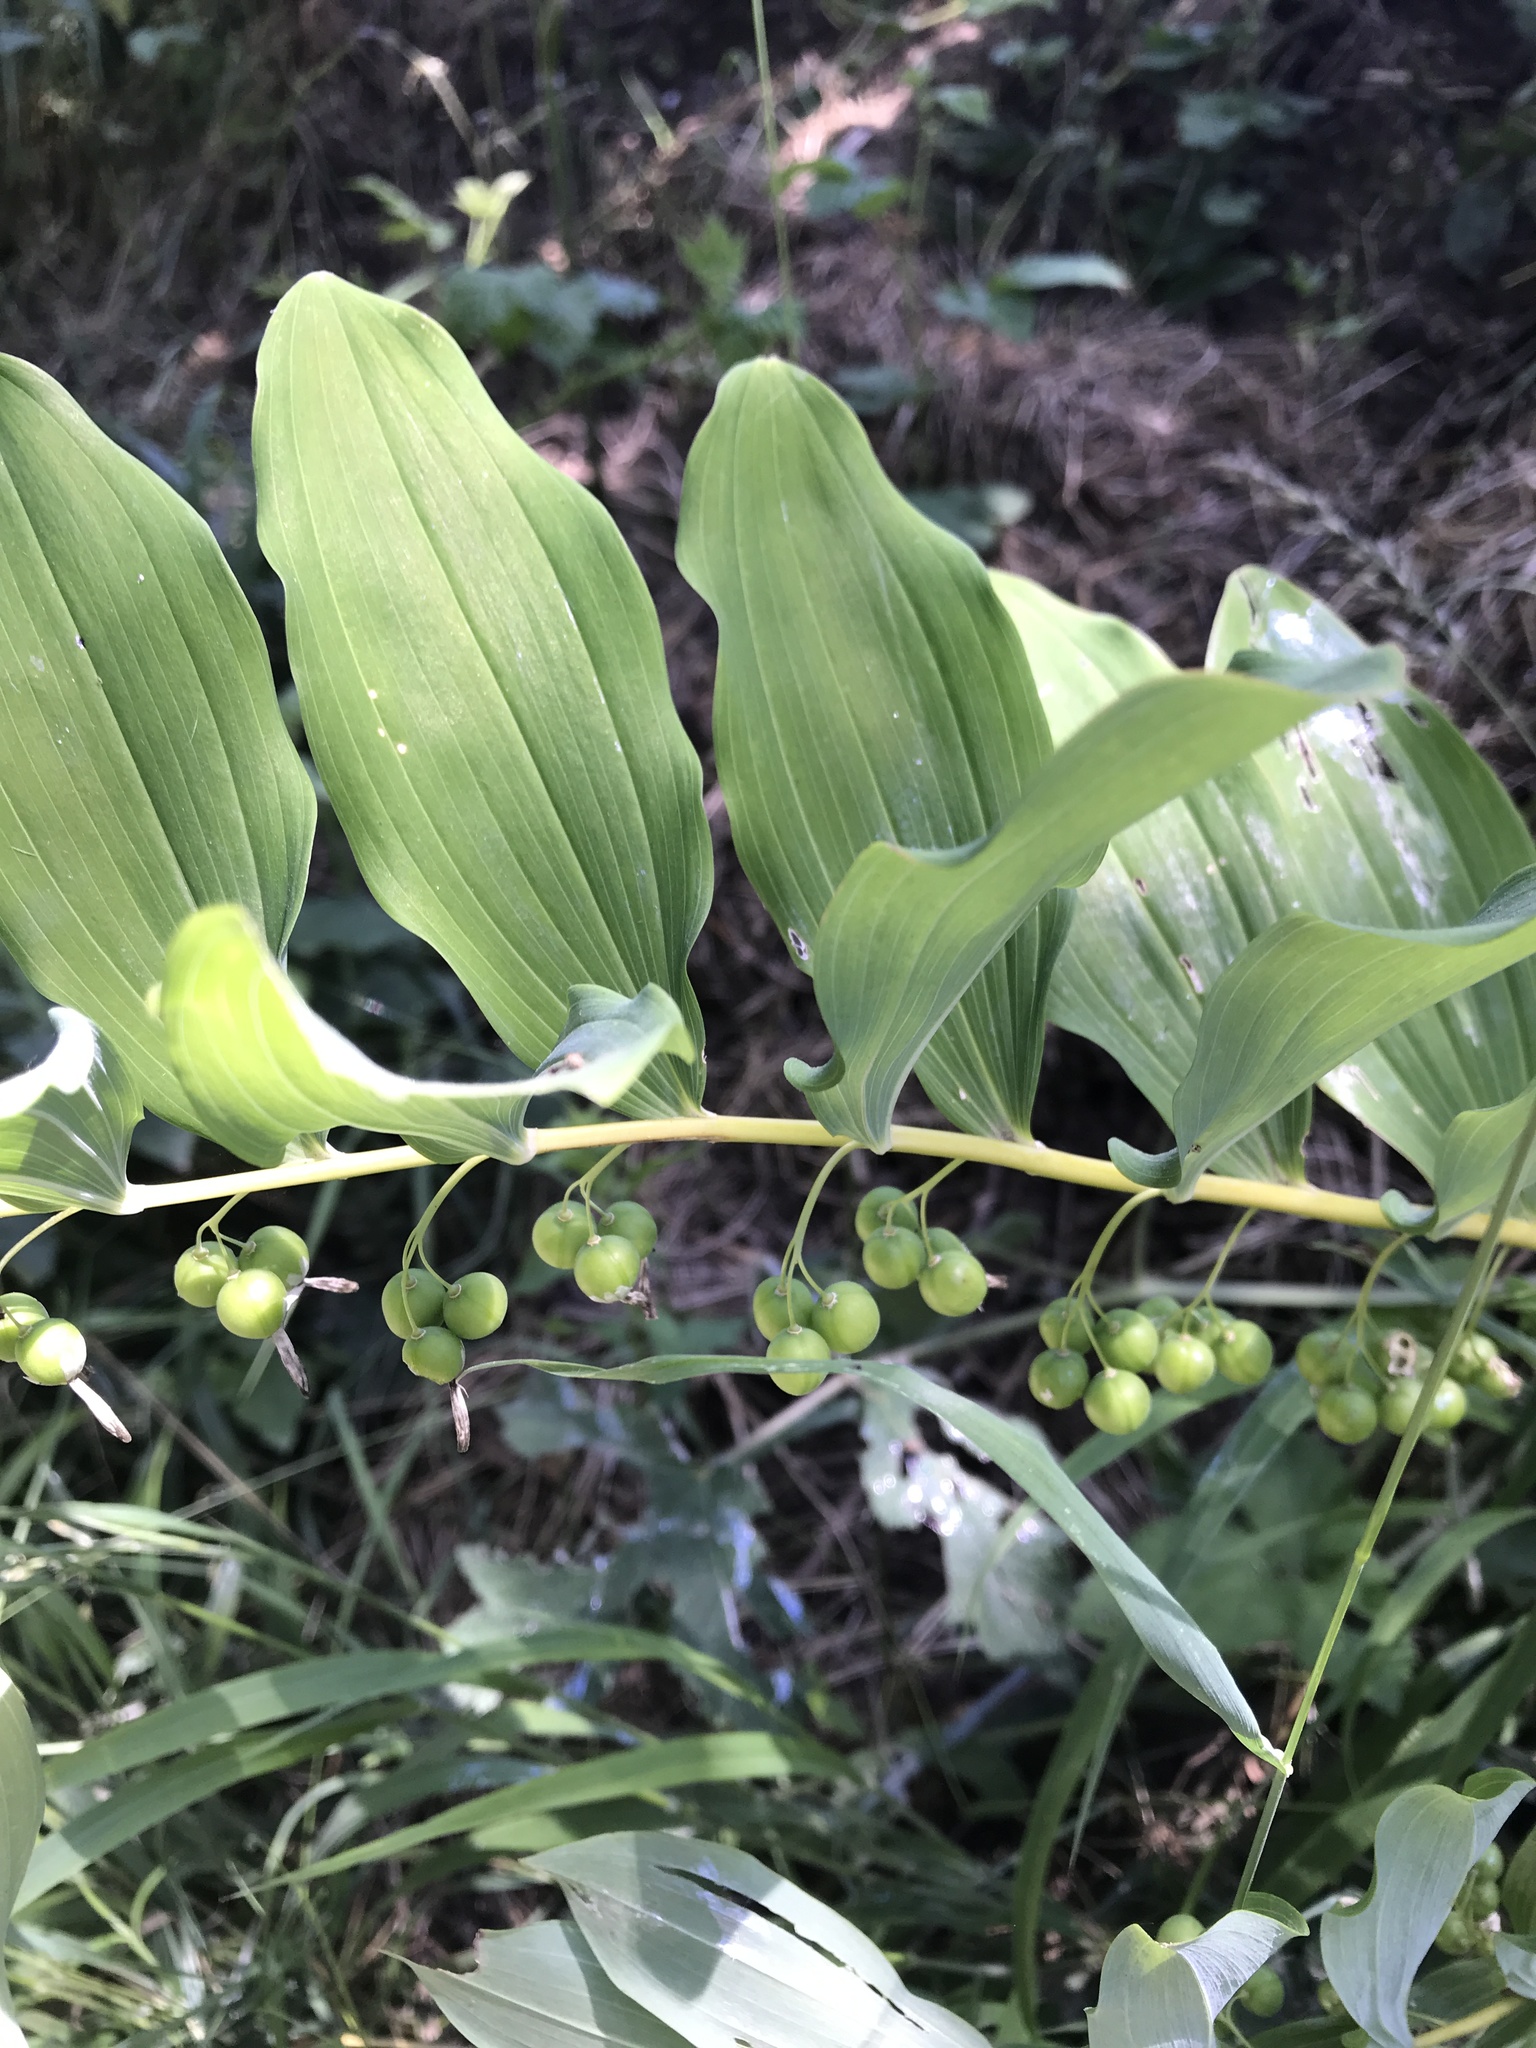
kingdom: Plantae
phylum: Tracheophyta
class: Liliopsida
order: Asparagales
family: Asparagaceae
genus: Polygonatum
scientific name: Polygonatum multiflorum
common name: Solomon's-seal
